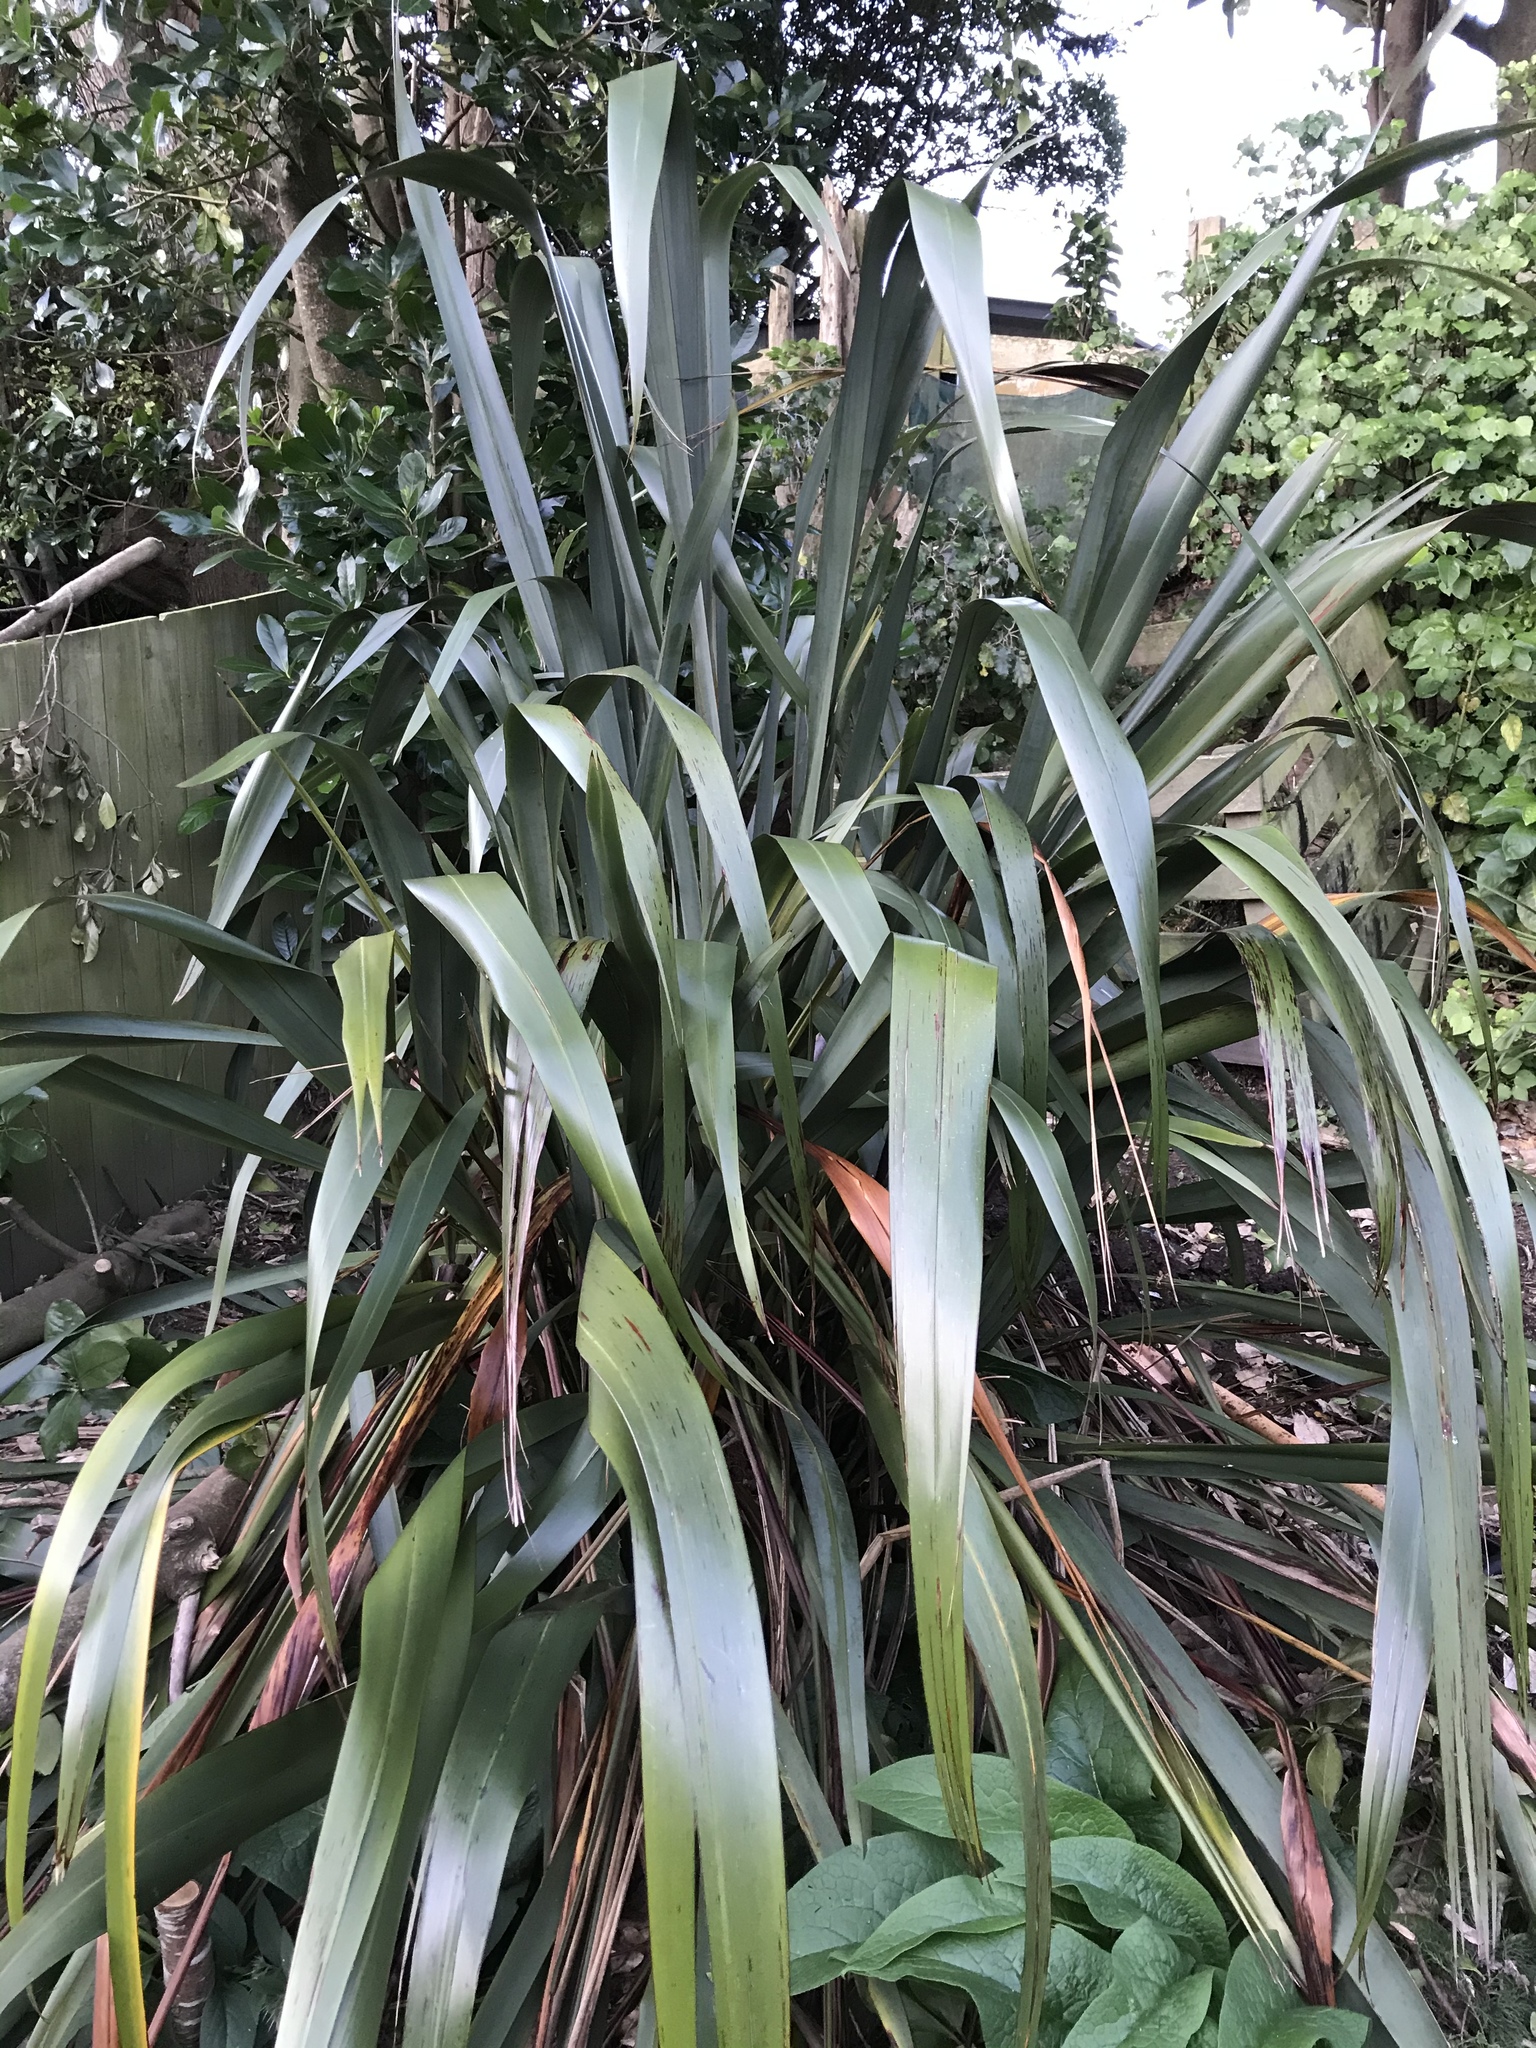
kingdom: Plantae
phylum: Tracheophyta
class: Liliopsida
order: Asparagales
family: Asphodelaceae
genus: Phormium
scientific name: Phormium tenax
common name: New zealand flax
